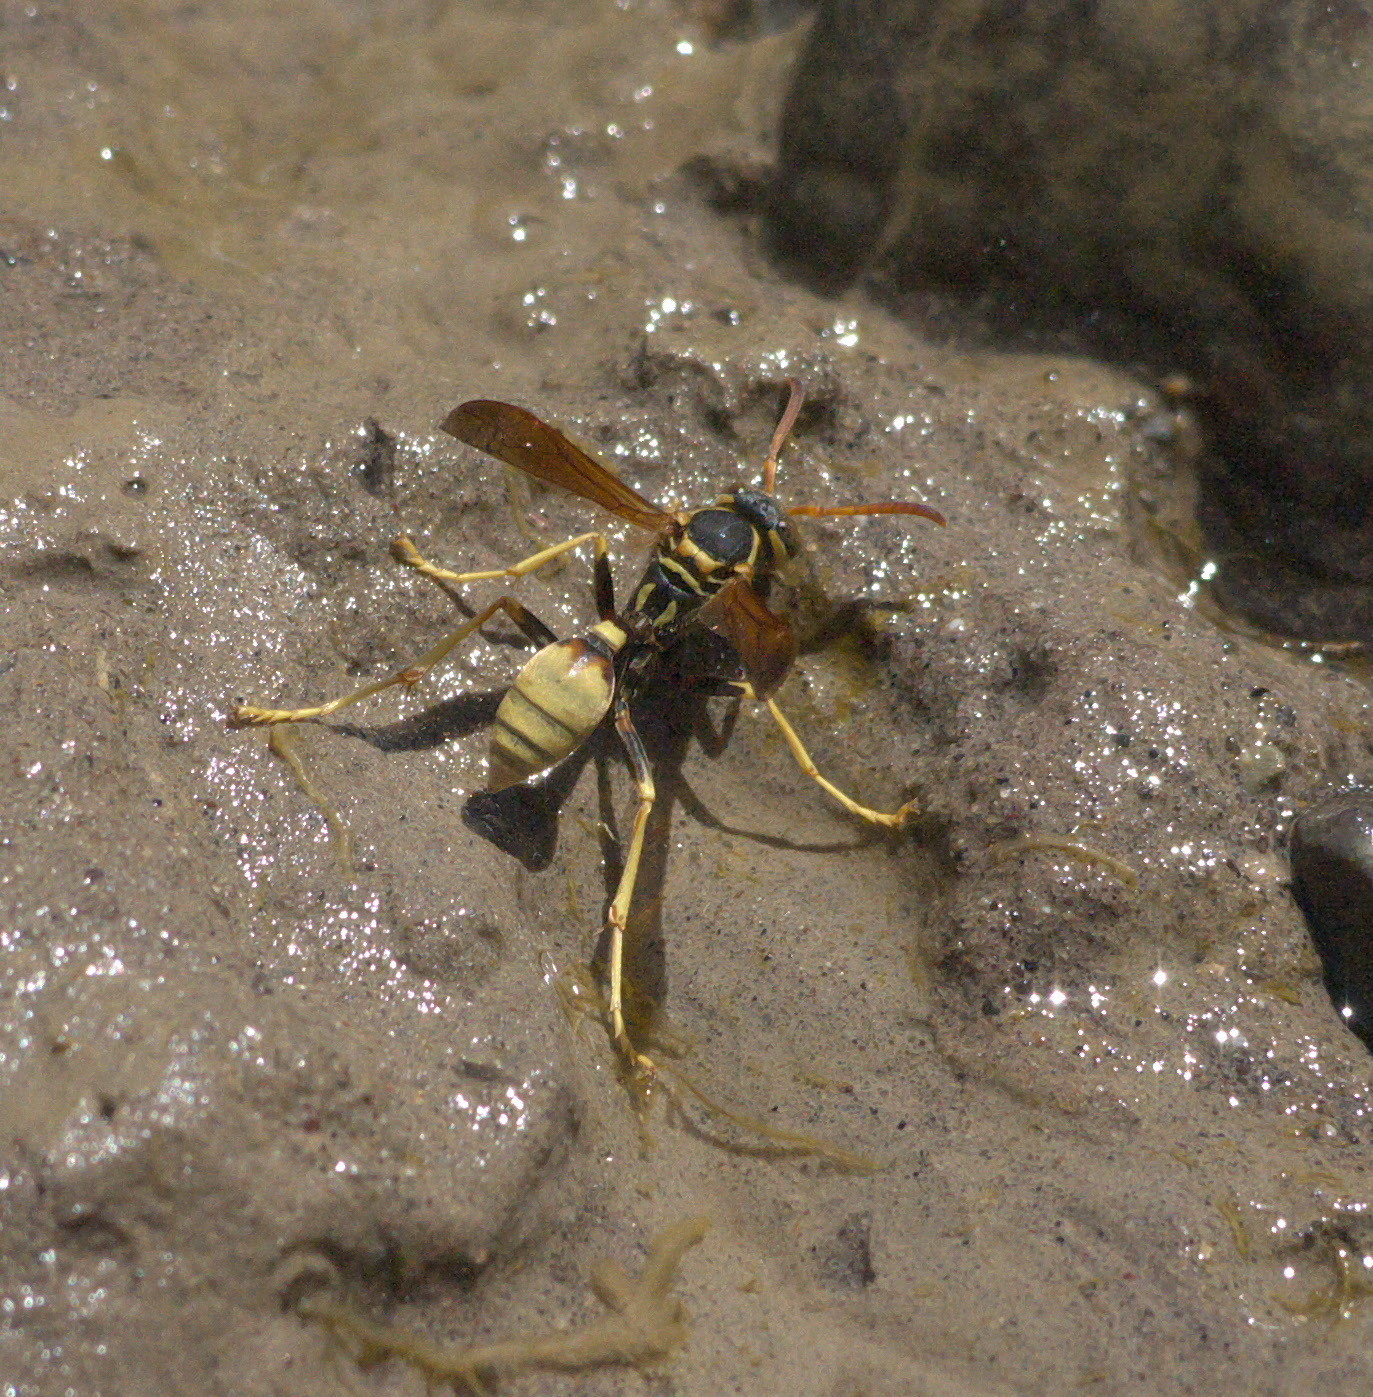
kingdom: Animalia
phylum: Arthropoda
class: Insecta
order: Hymenoptera
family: Vespidae
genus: Mischocyttarus
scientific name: Mischocyttarus flavitarsis
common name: Wasp
